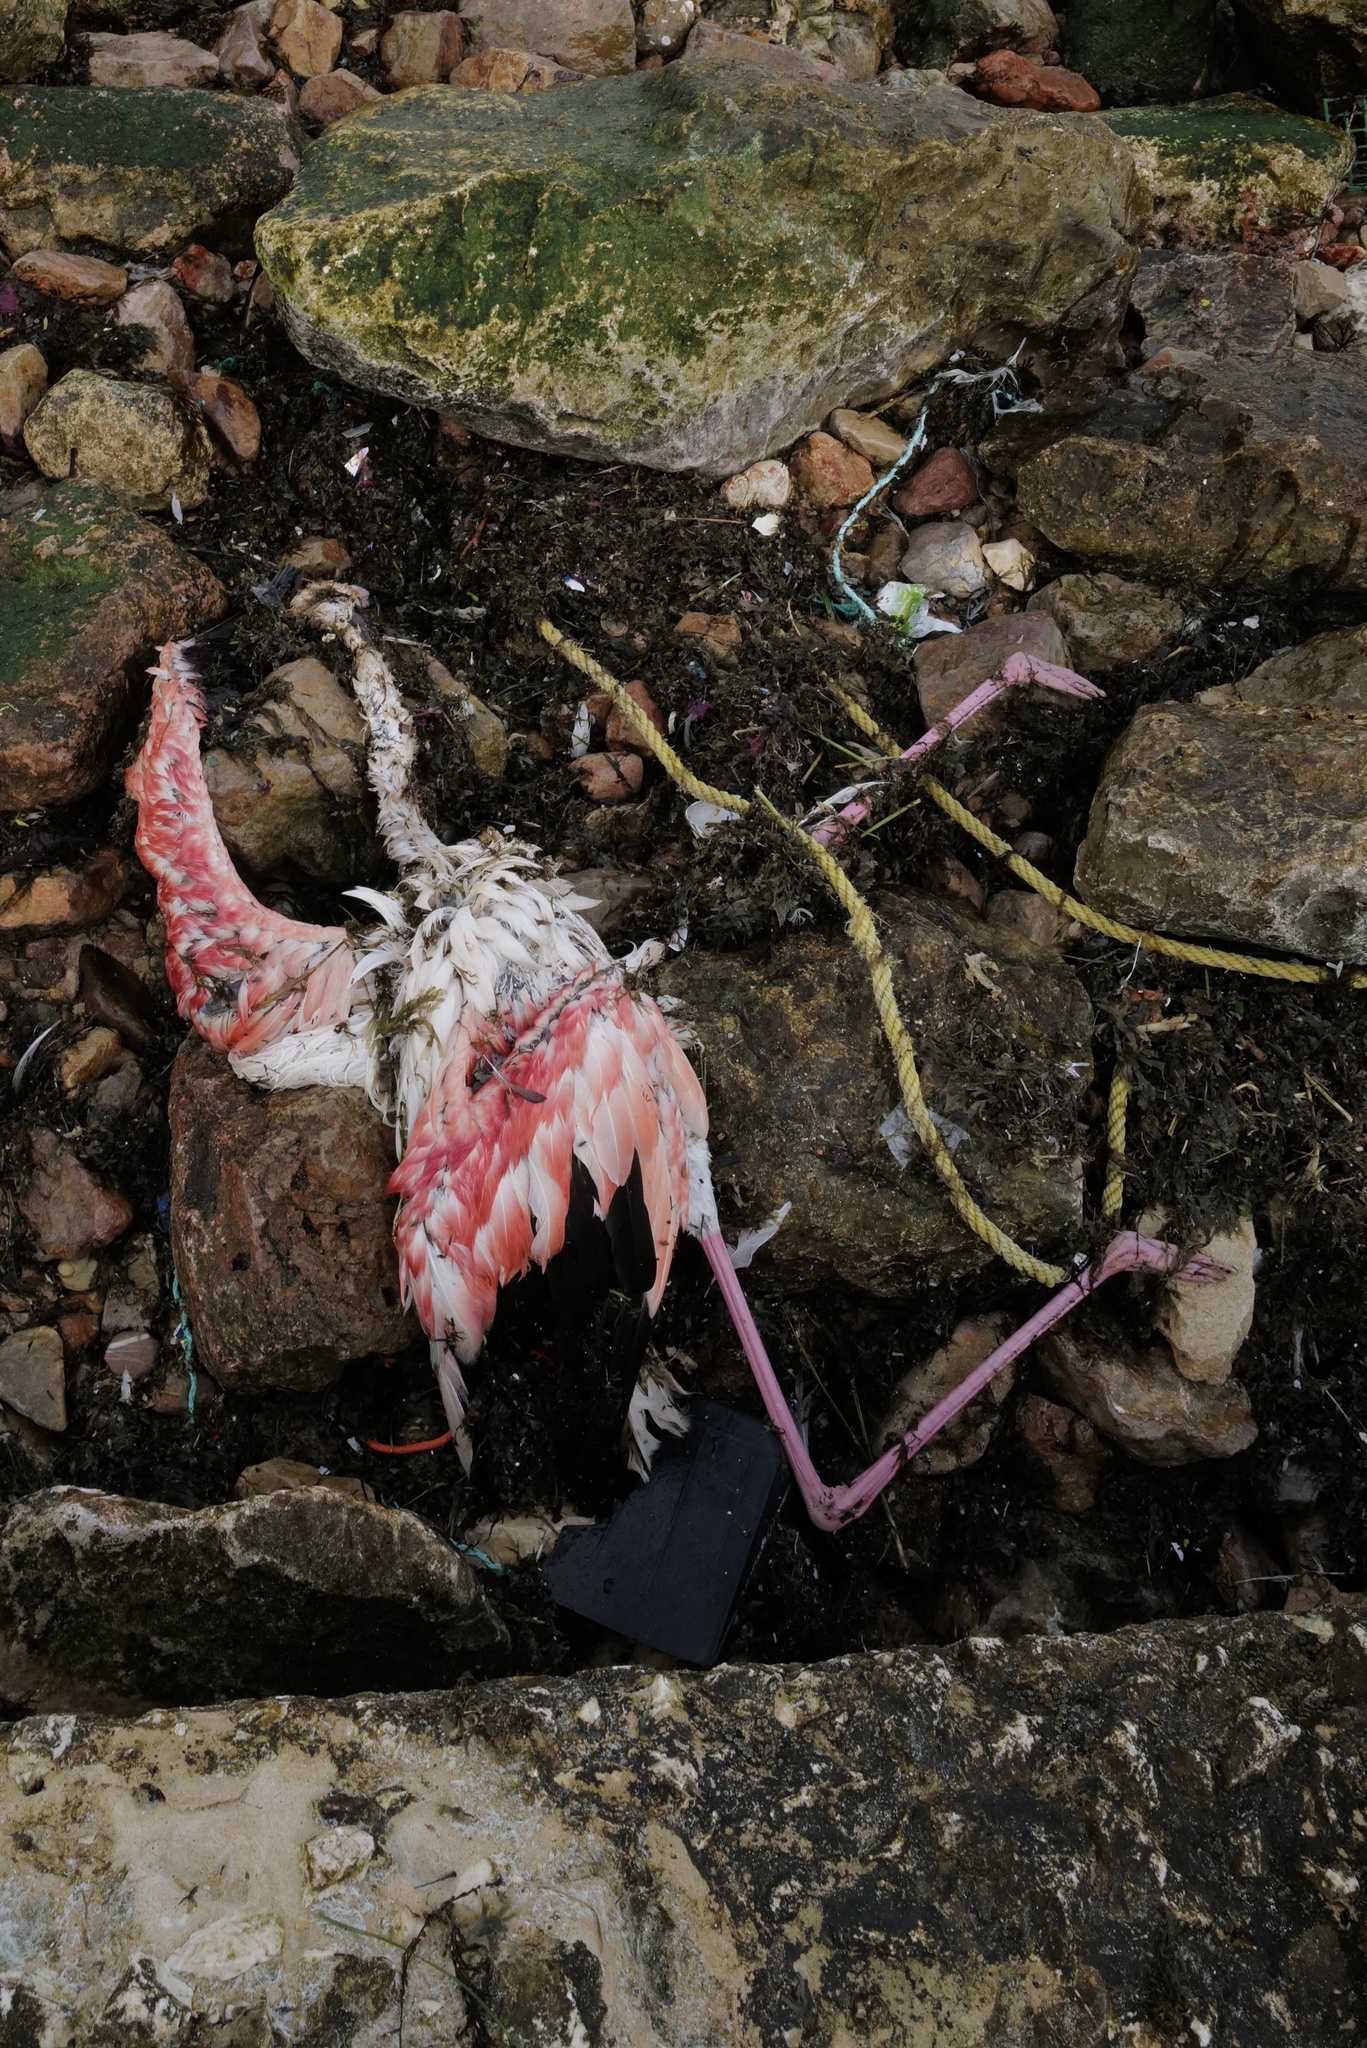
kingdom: Animalia
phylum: Chordata
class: Aves
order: Phoenicopteriformes
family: Phoenicopteridae
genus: Phoenicopterus
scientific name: Phoenicopterus roseus
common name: Greater flamingo
